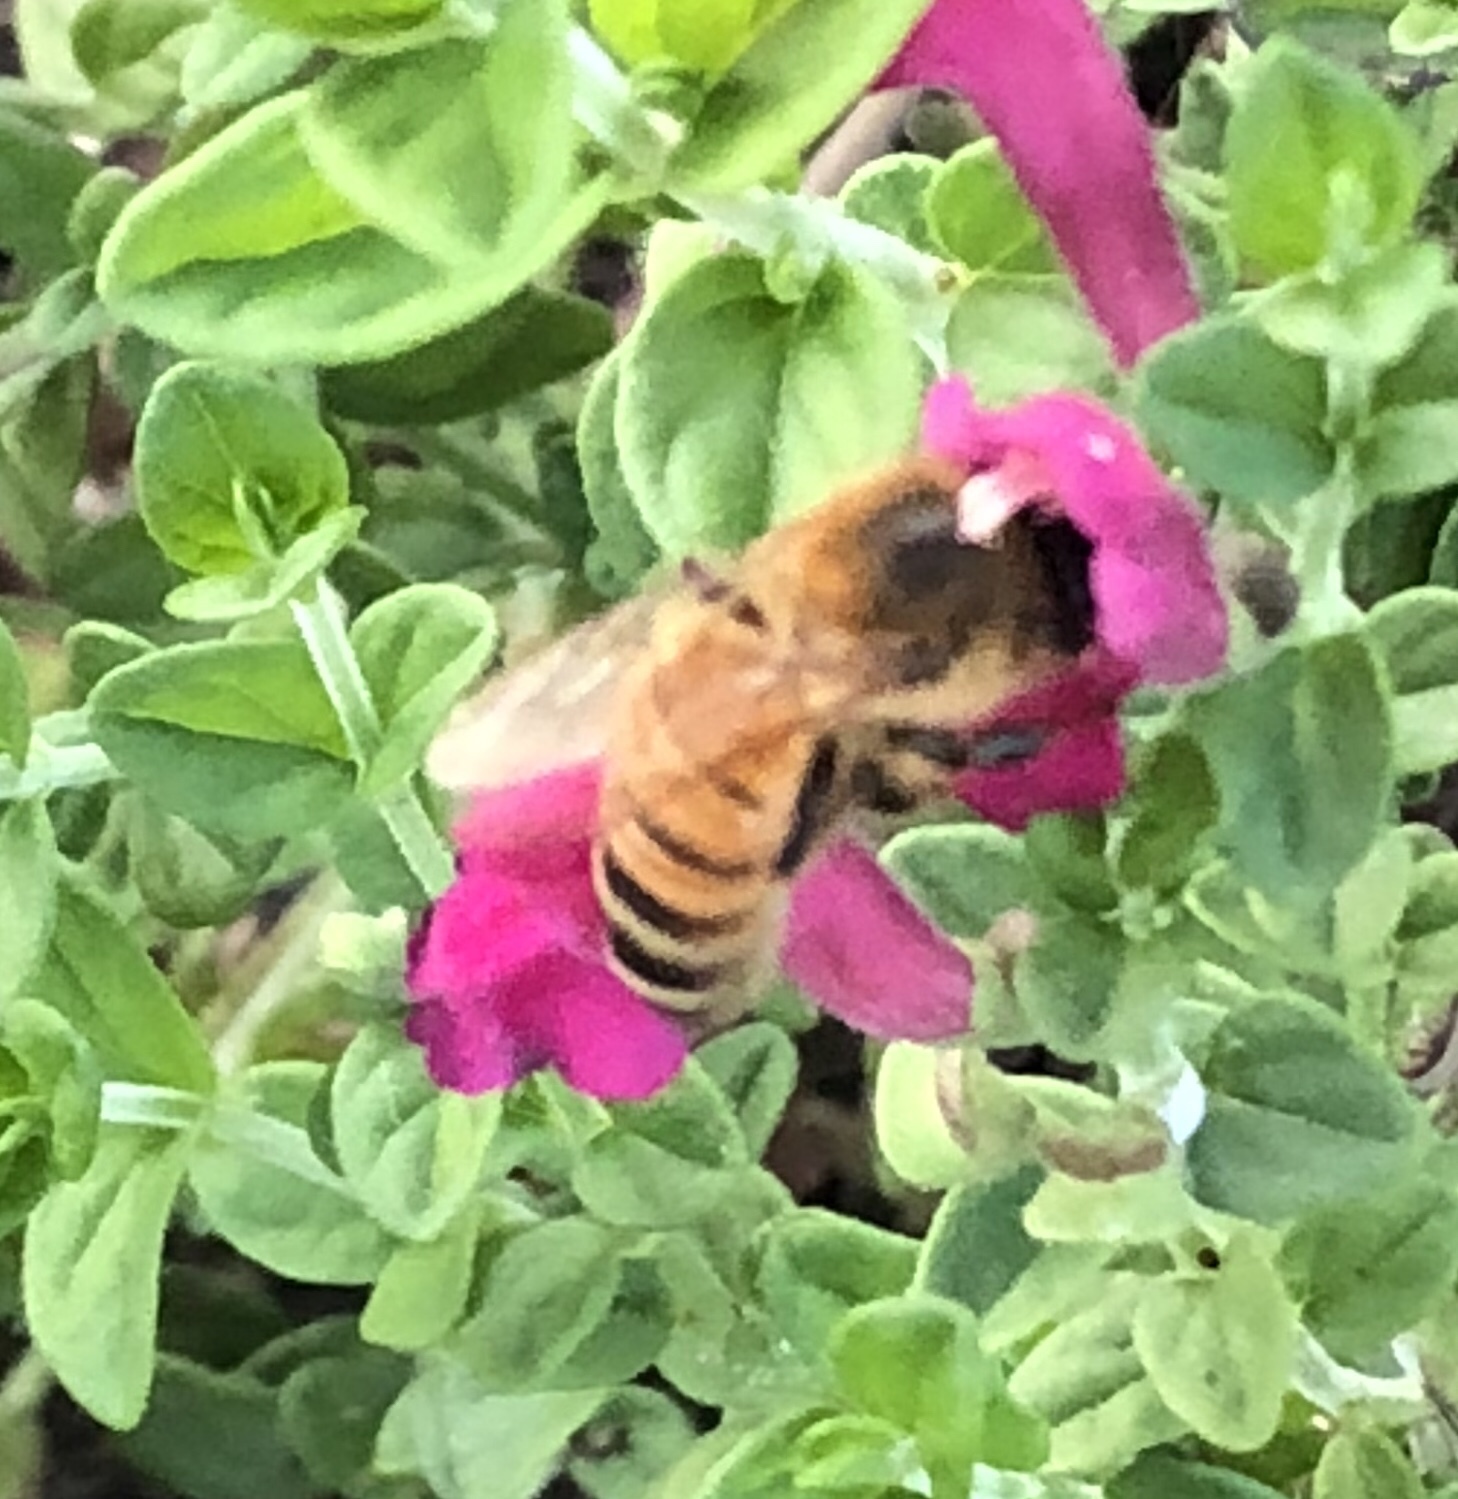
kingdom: Animalia
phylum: Arthropoda
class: Insecta
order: Hymenoptera
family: Apidae
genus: Apis
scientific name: Apis mellifera
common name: Honey bee
